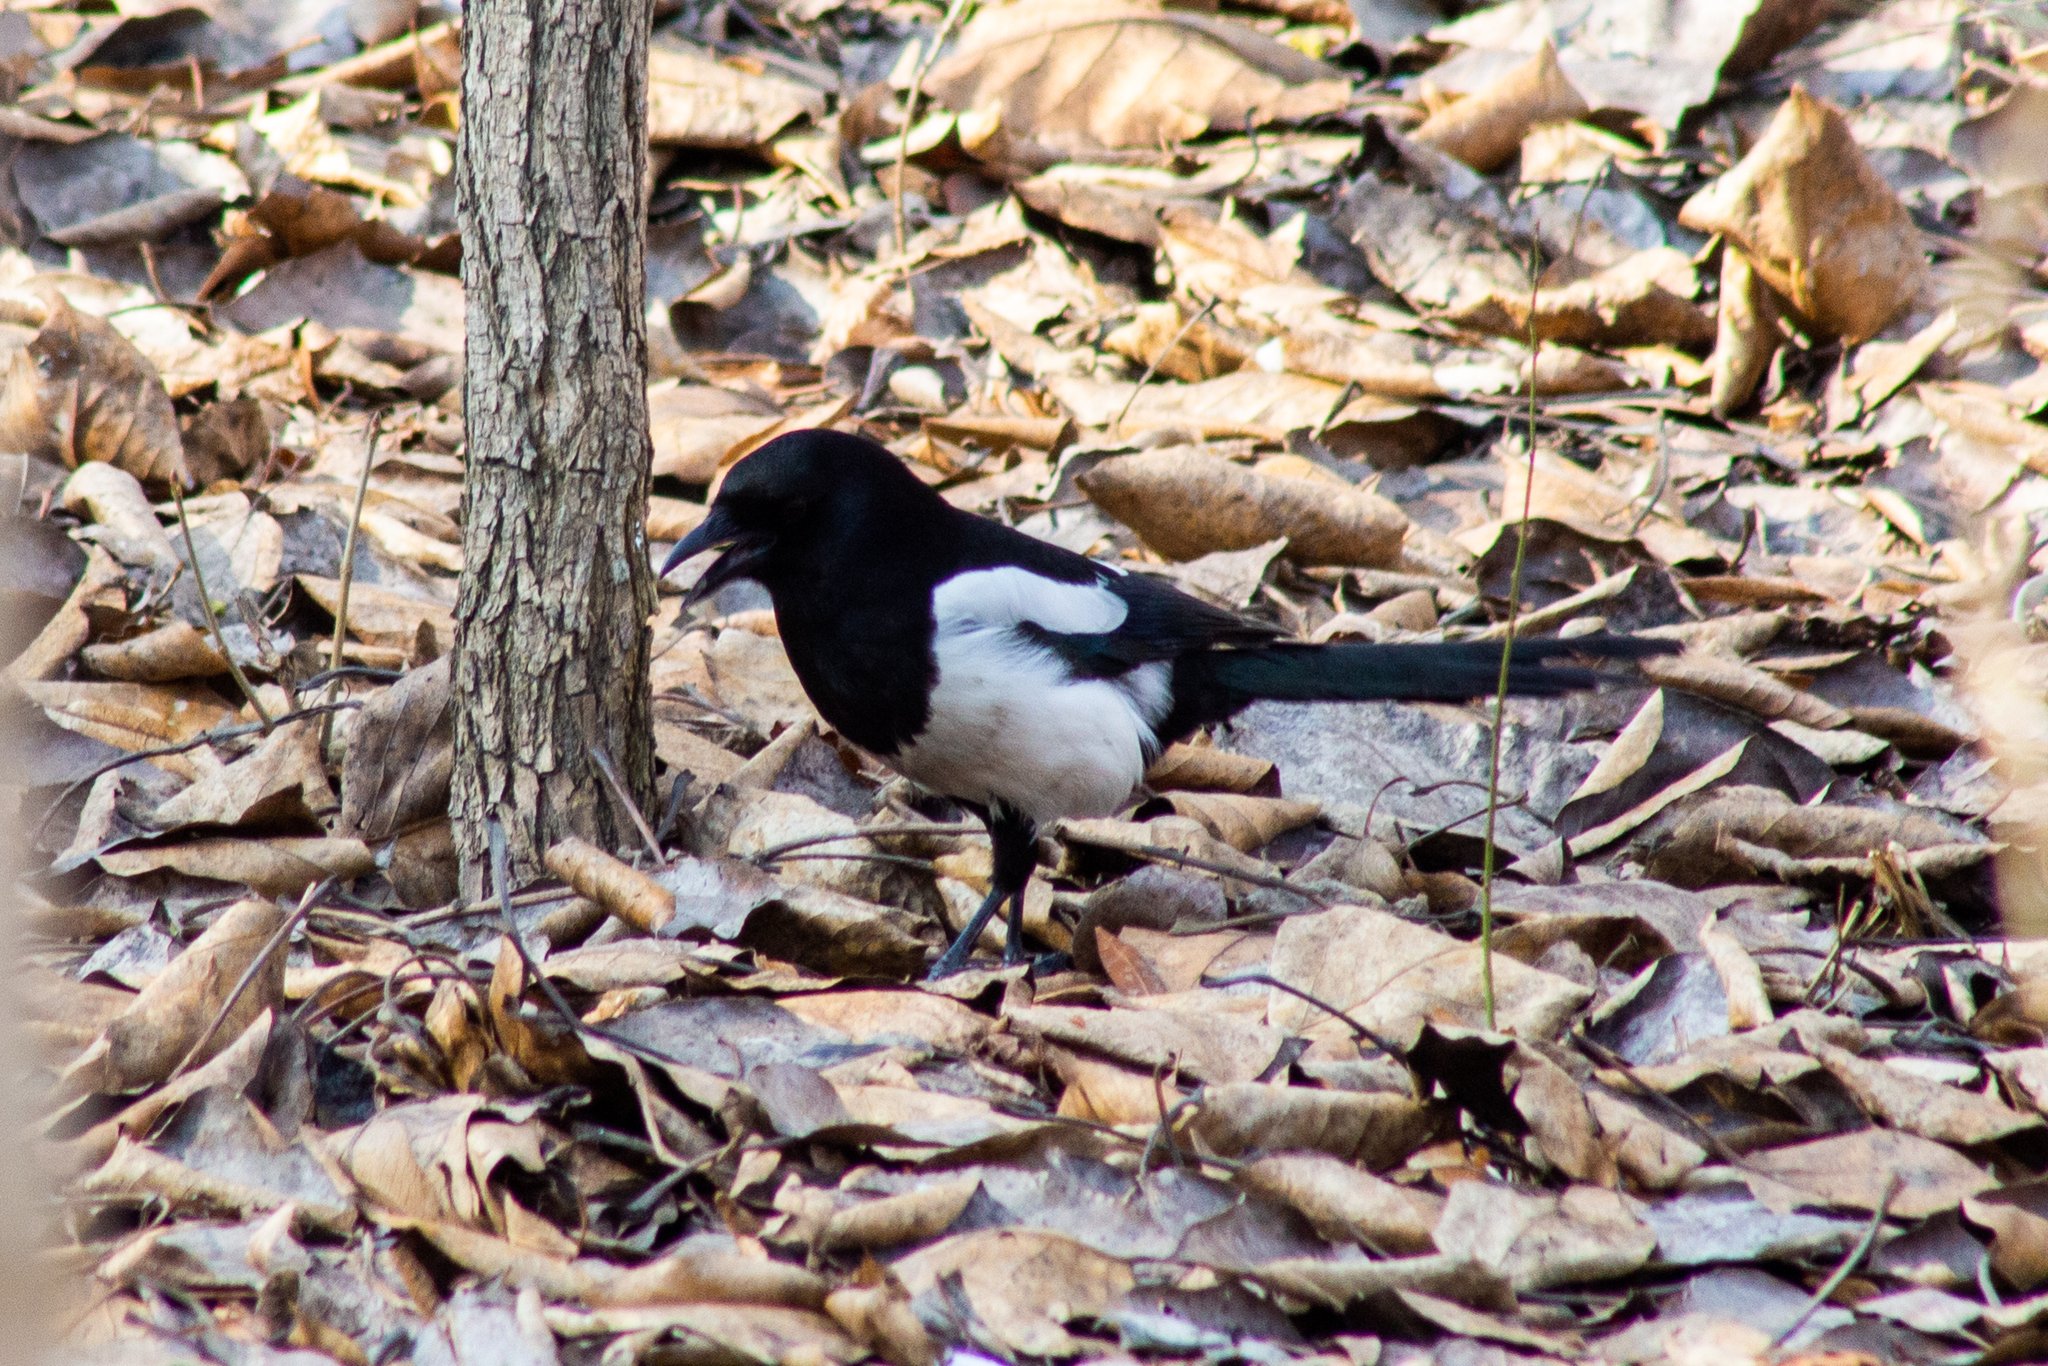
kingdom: Animalia
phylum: Chordata
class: Aves
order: Passeriformes
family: Corvidae
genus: Pica
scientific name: Pica pica
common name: Eurasian magpie
